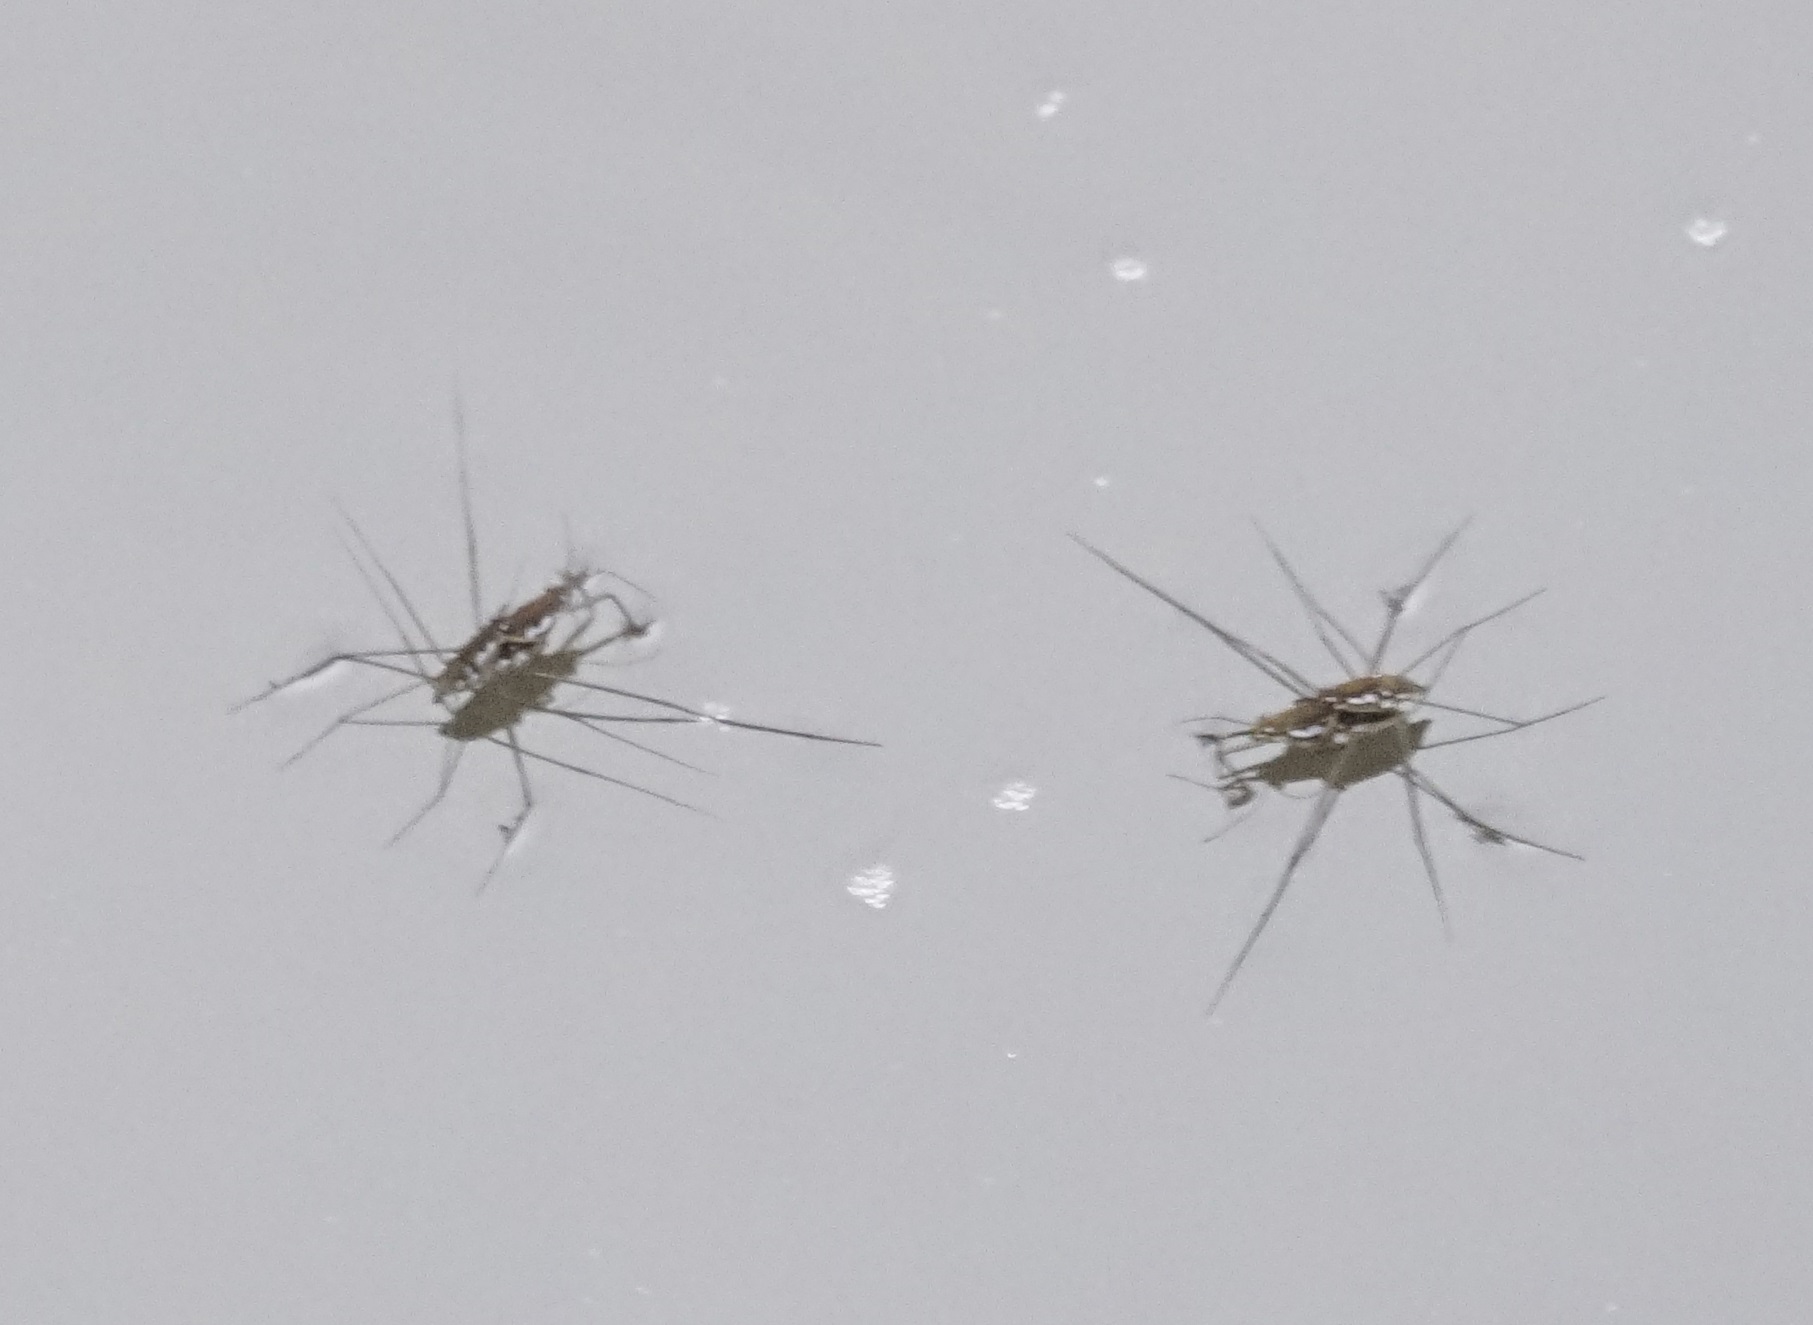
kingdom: Animalia
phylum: Arthropoda
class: Insecta
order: Hemiptera
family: Gerridae
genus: Tenagogerris
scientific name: Tenagogerris euphrosyne
